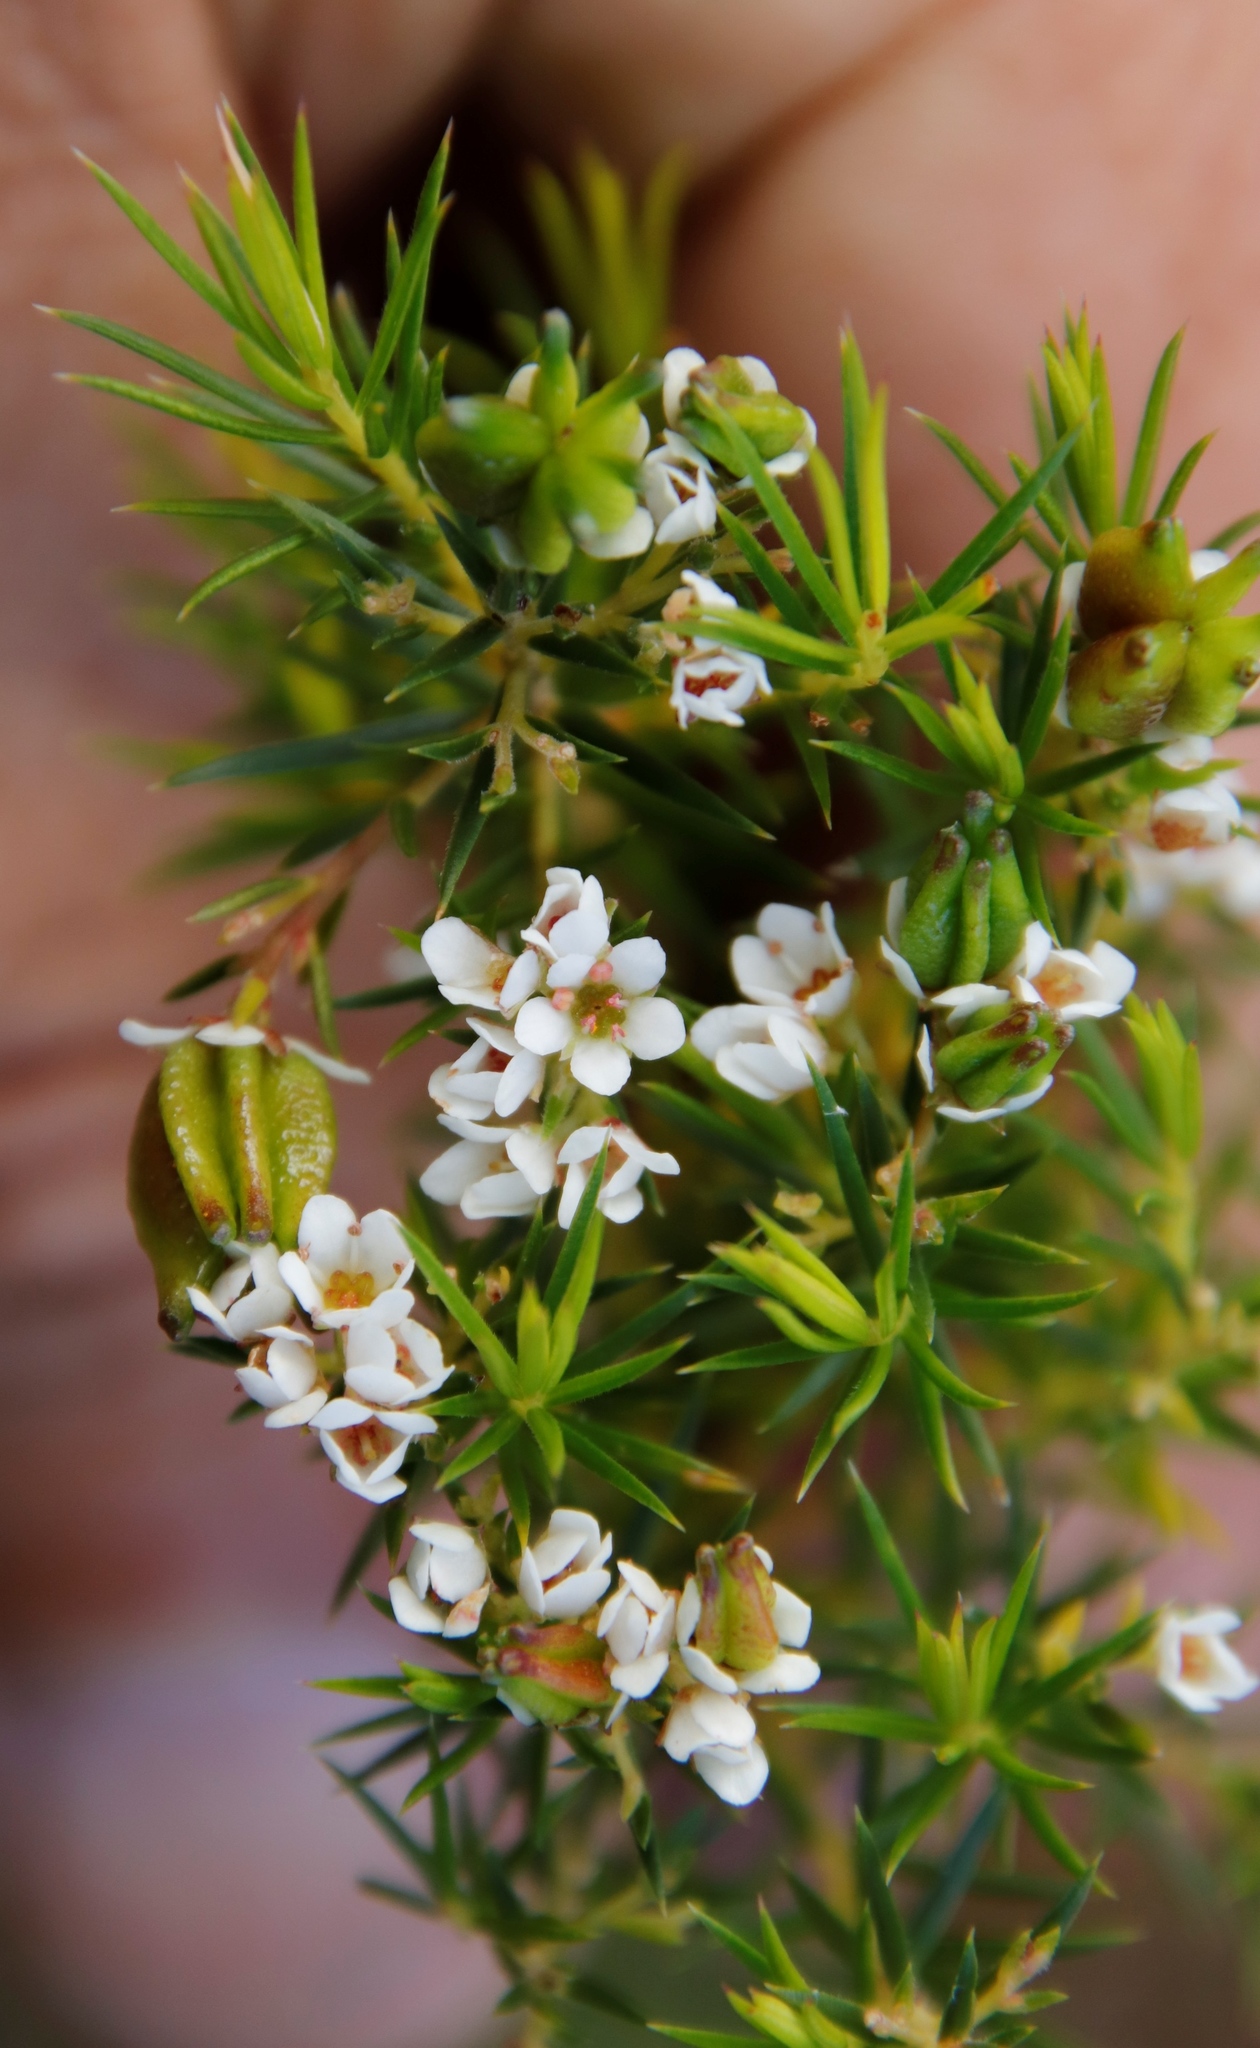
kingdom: Plantae
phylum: Tracheophyta
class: Magnoliopsida
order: Sapindales
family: Rutaceae
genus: Diosma
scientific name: Diosma hirsuta
